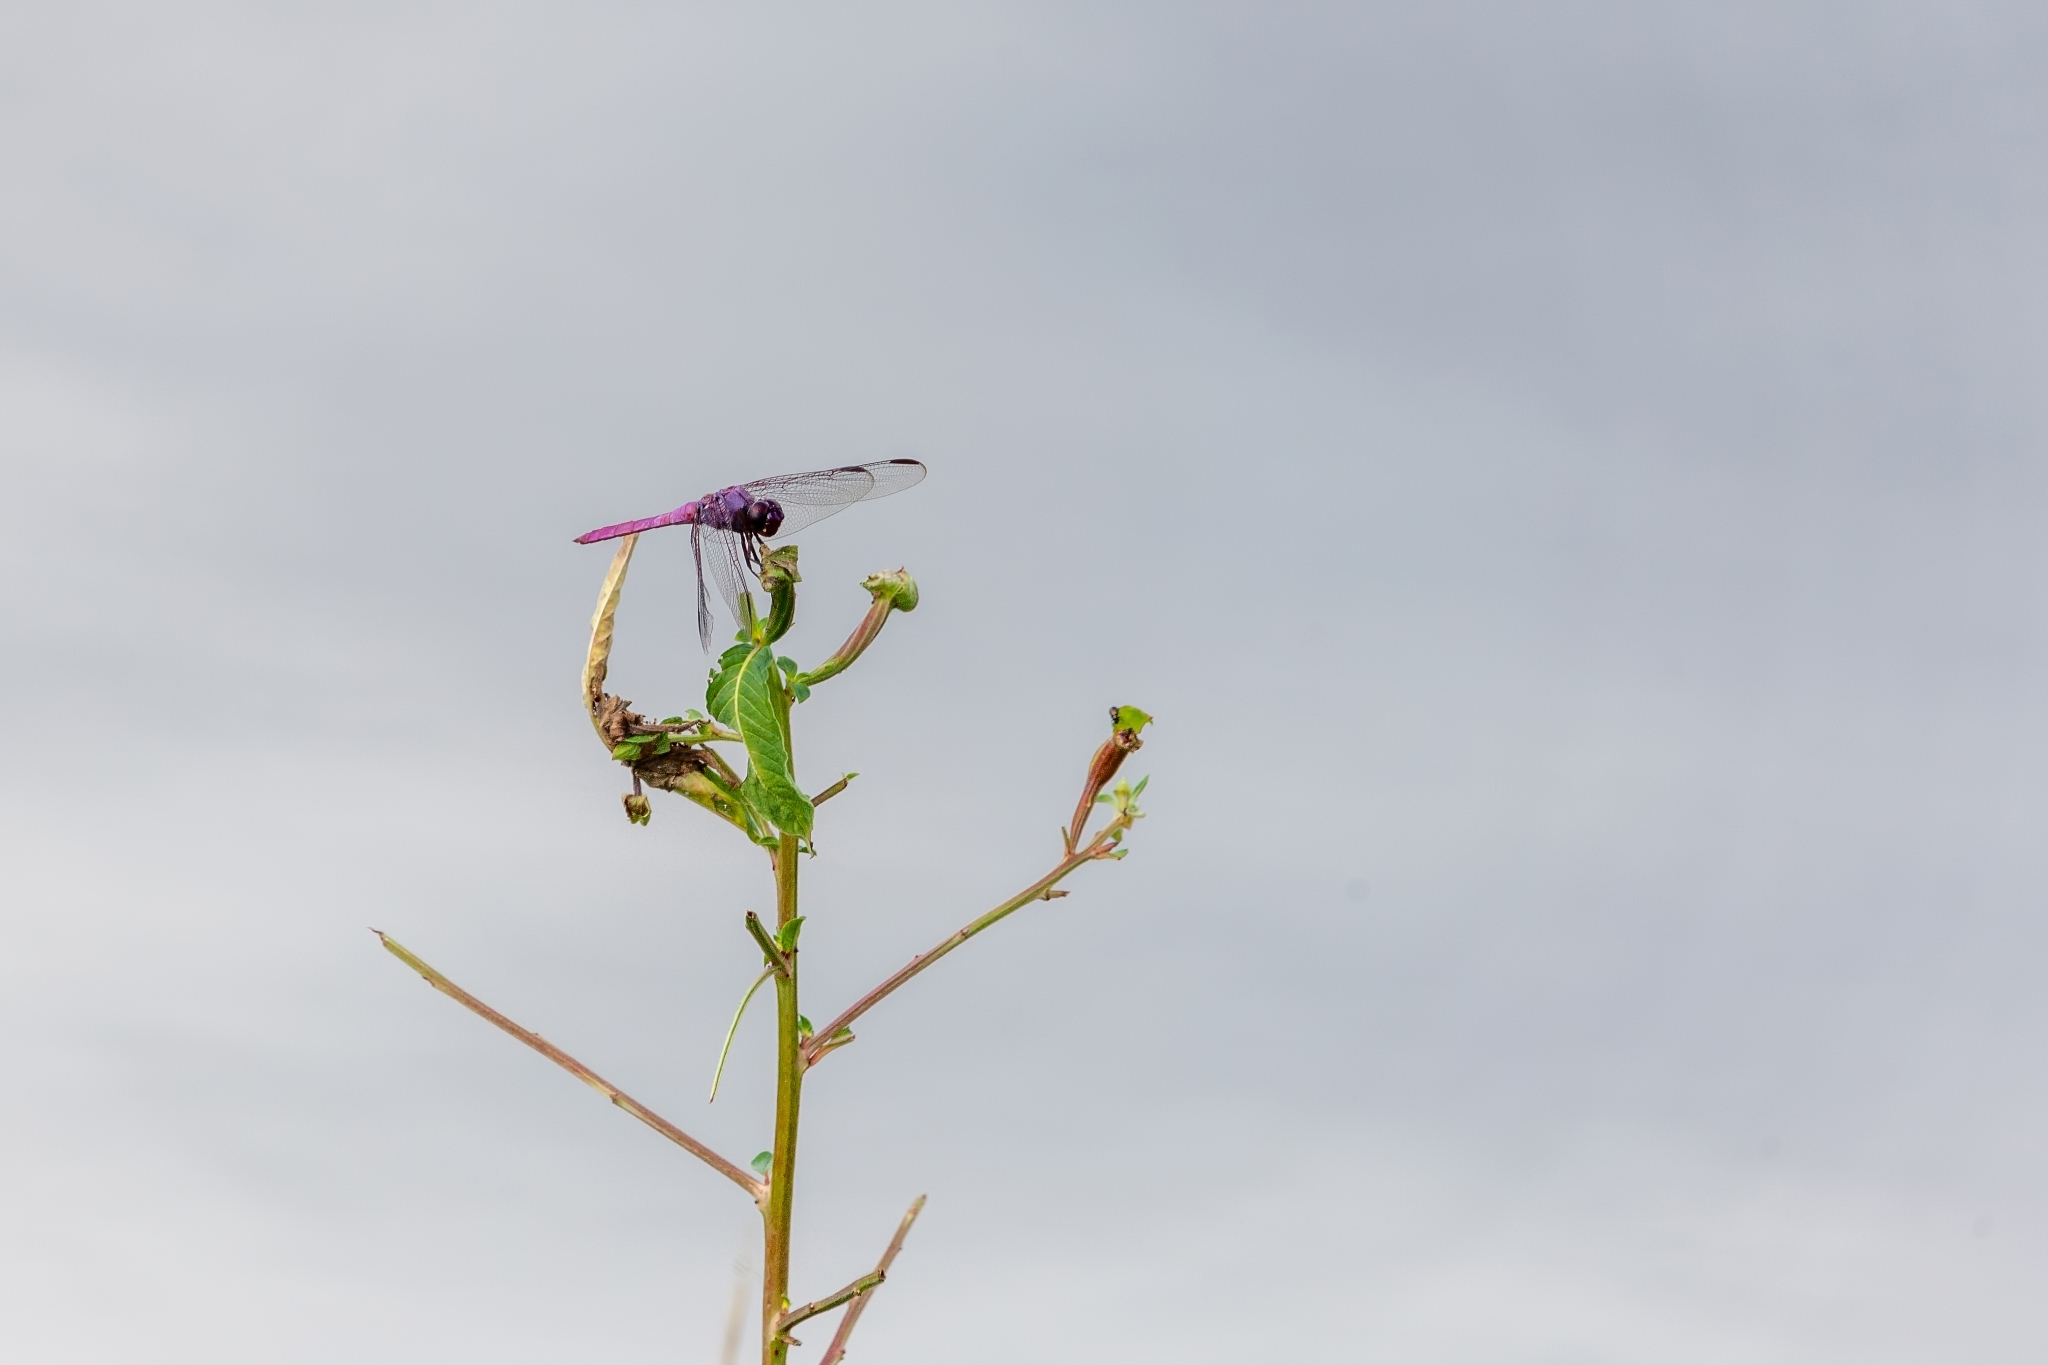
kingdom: Animalia
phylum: Arthropoda
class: Insecta
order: Odonata
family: Libellulidae
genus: Orthemis
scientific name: Orthemis ferruginea
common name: Roseate skimmer
